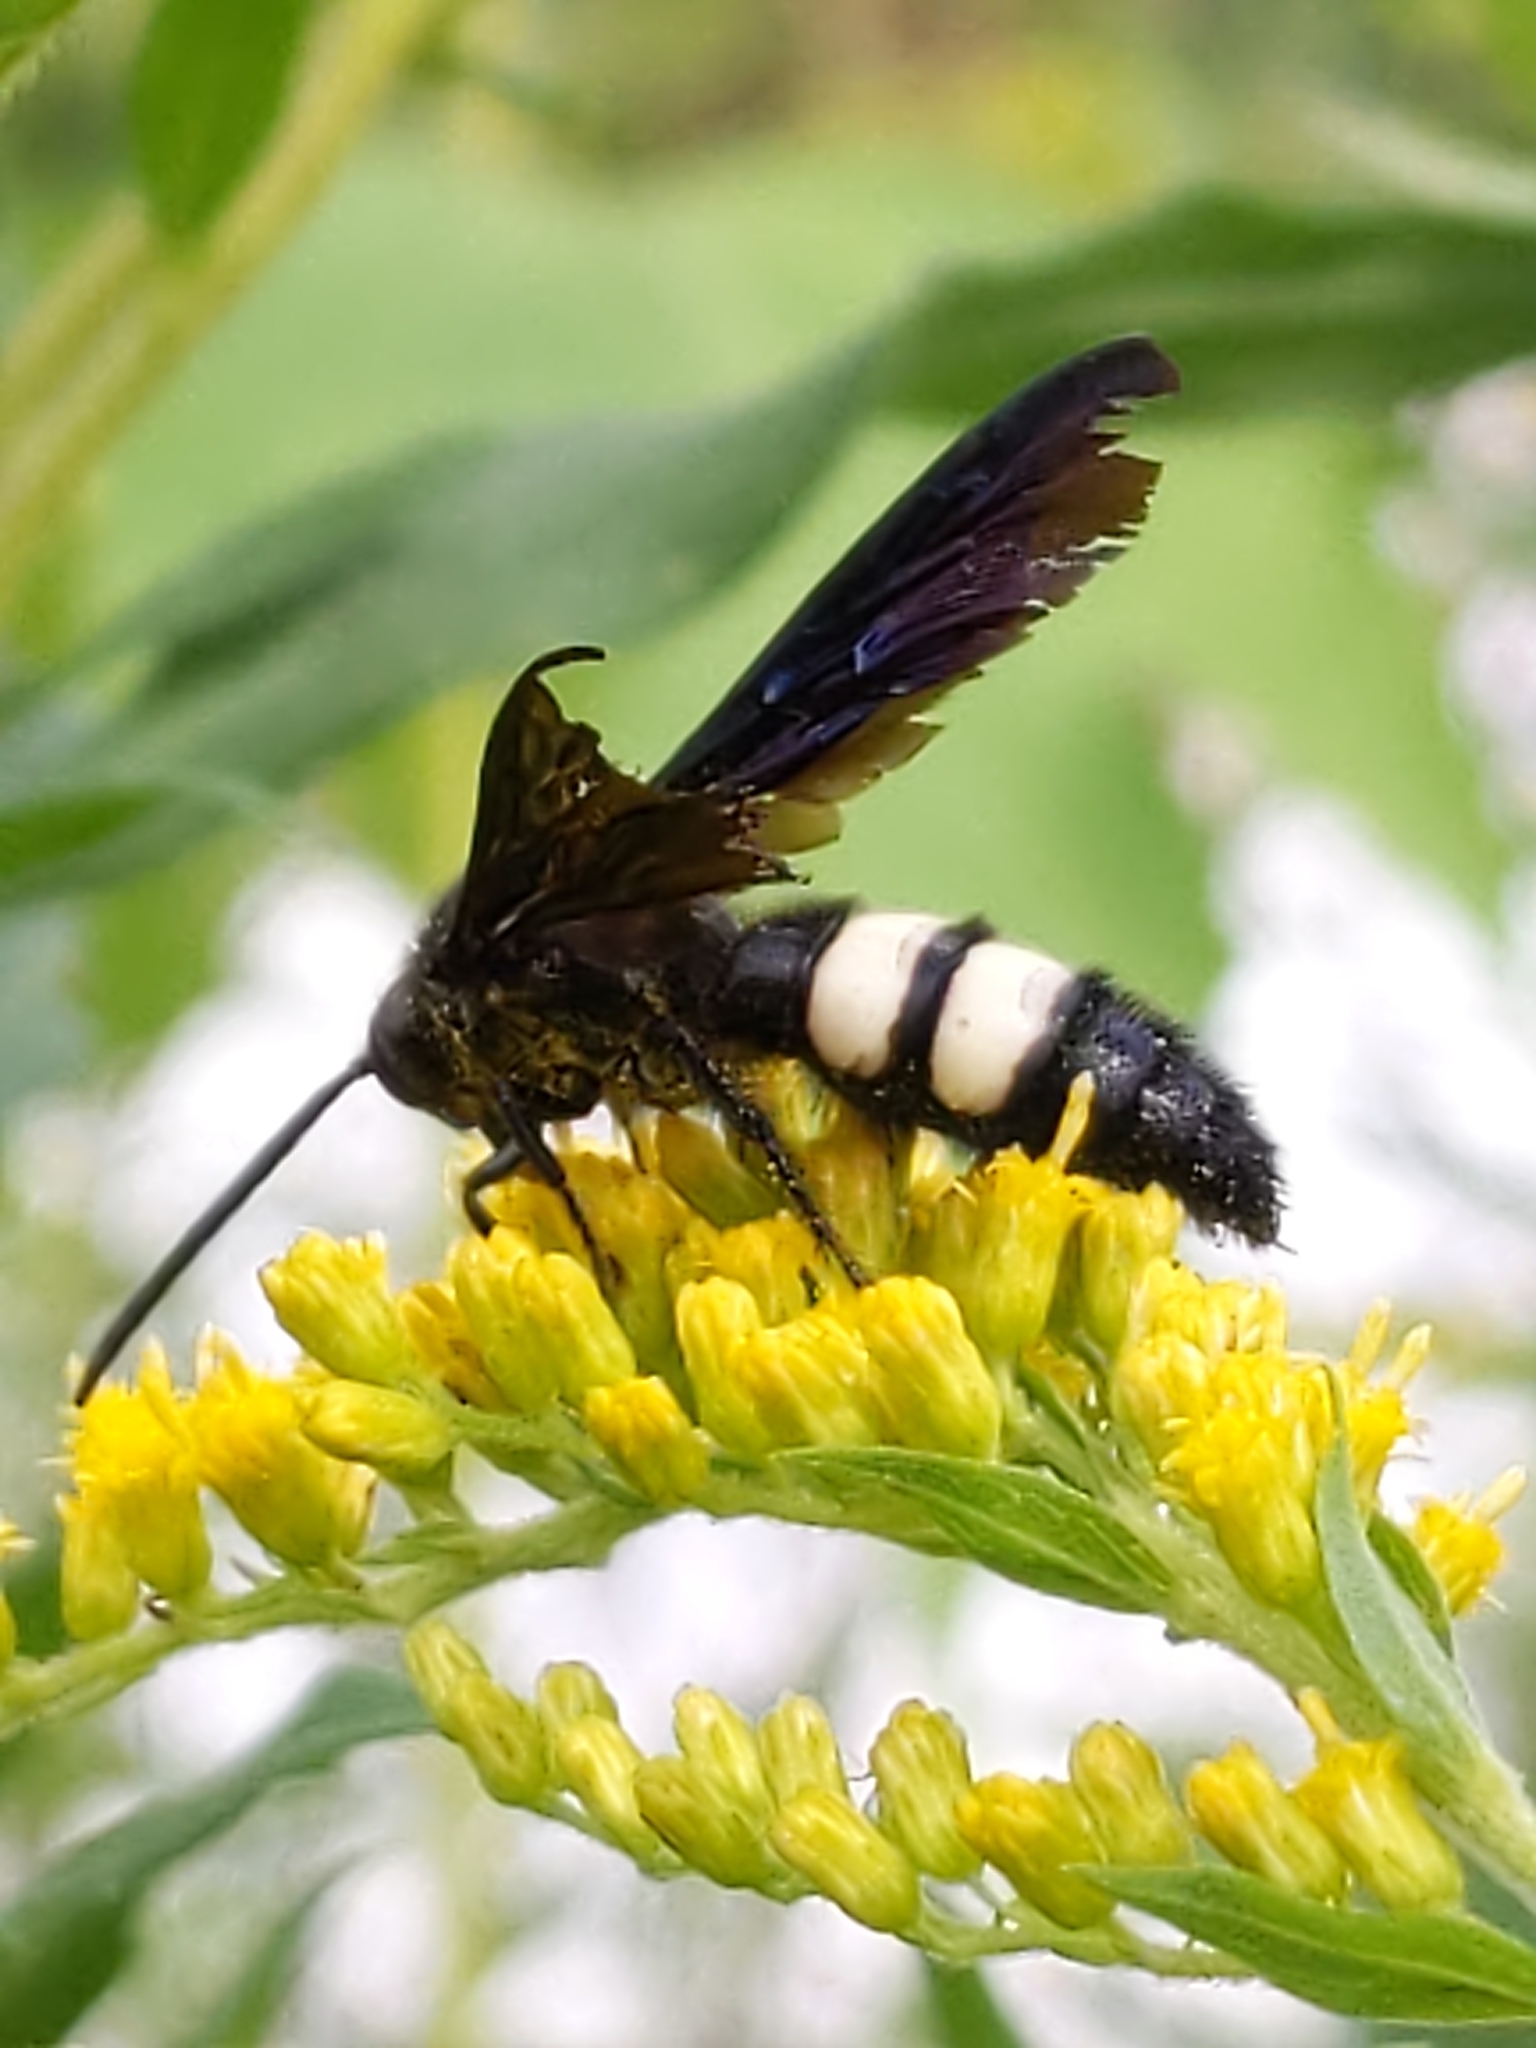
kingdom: Animalia
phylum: Arthropoda
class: Insecta
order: Hymenoptera
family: Scoliidae
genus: Scolia
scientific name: Scolia bicincta
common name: Double-banded scoliid wasp
